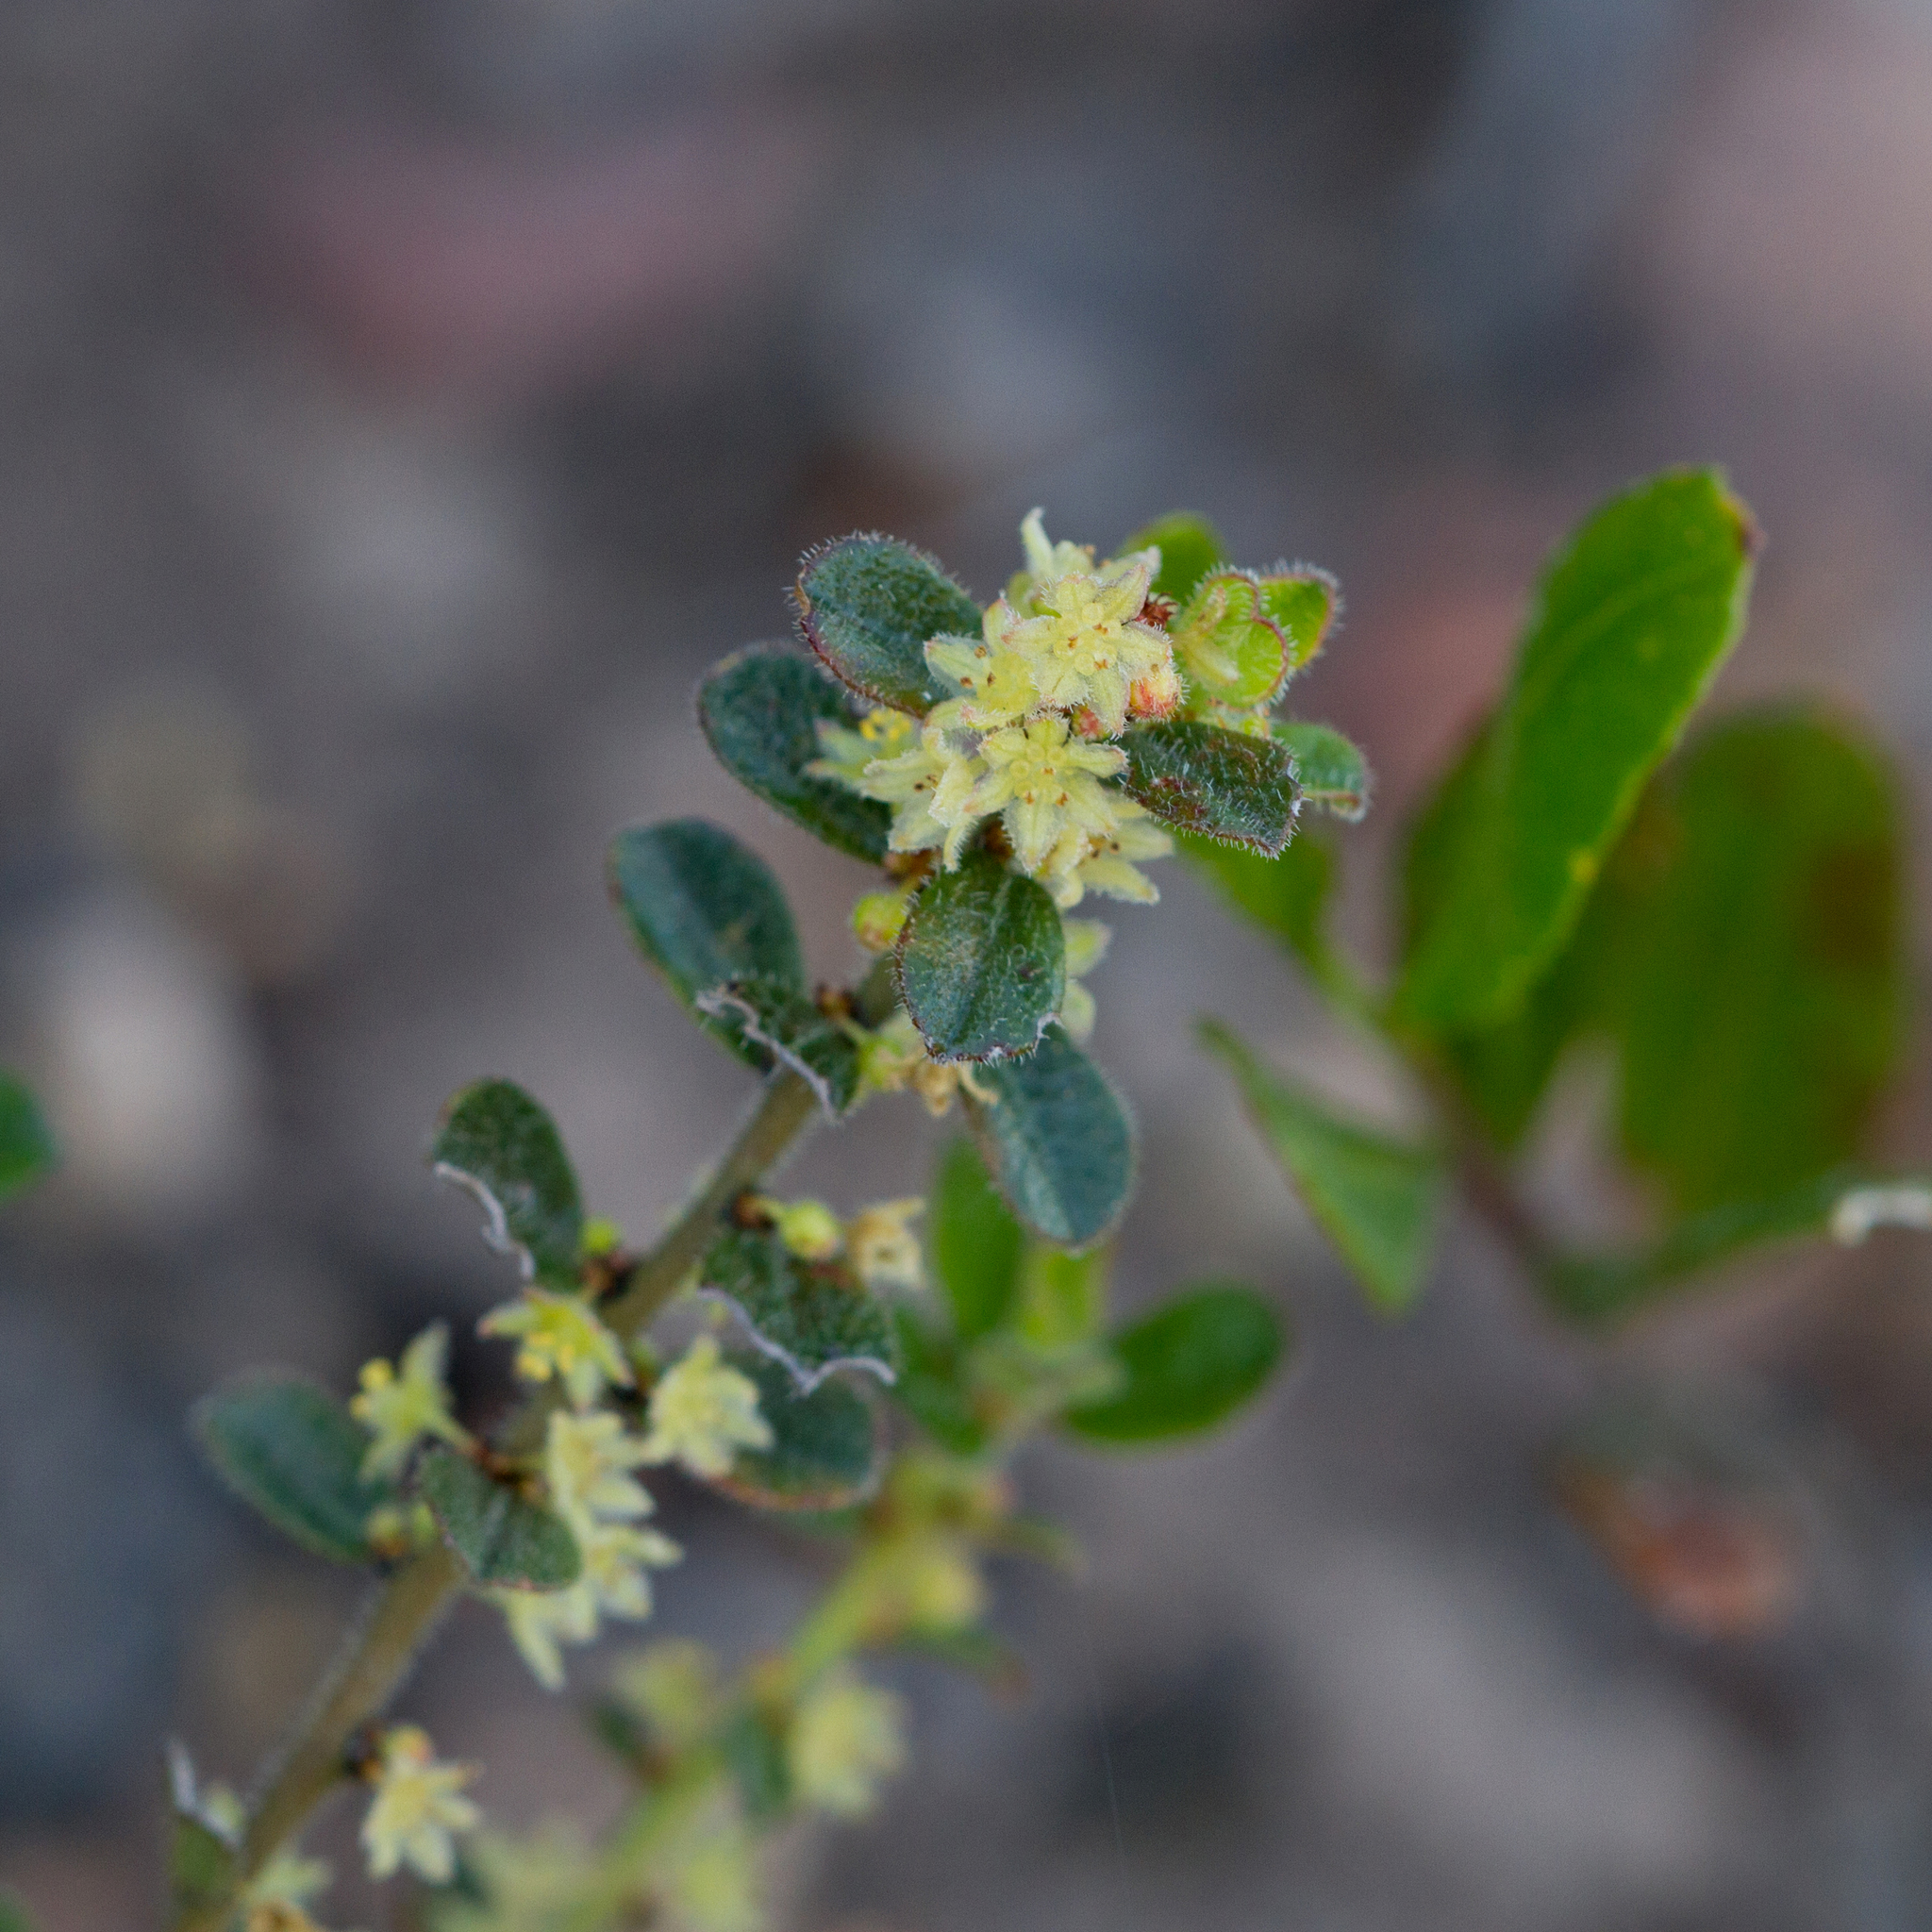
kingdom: Plantae
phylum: Tracheophyta
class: Magnoliopsida
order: Malpighiales
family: Phyllanthaceae
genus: Phyllanthus
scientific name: Phyllanthus hirtellus
